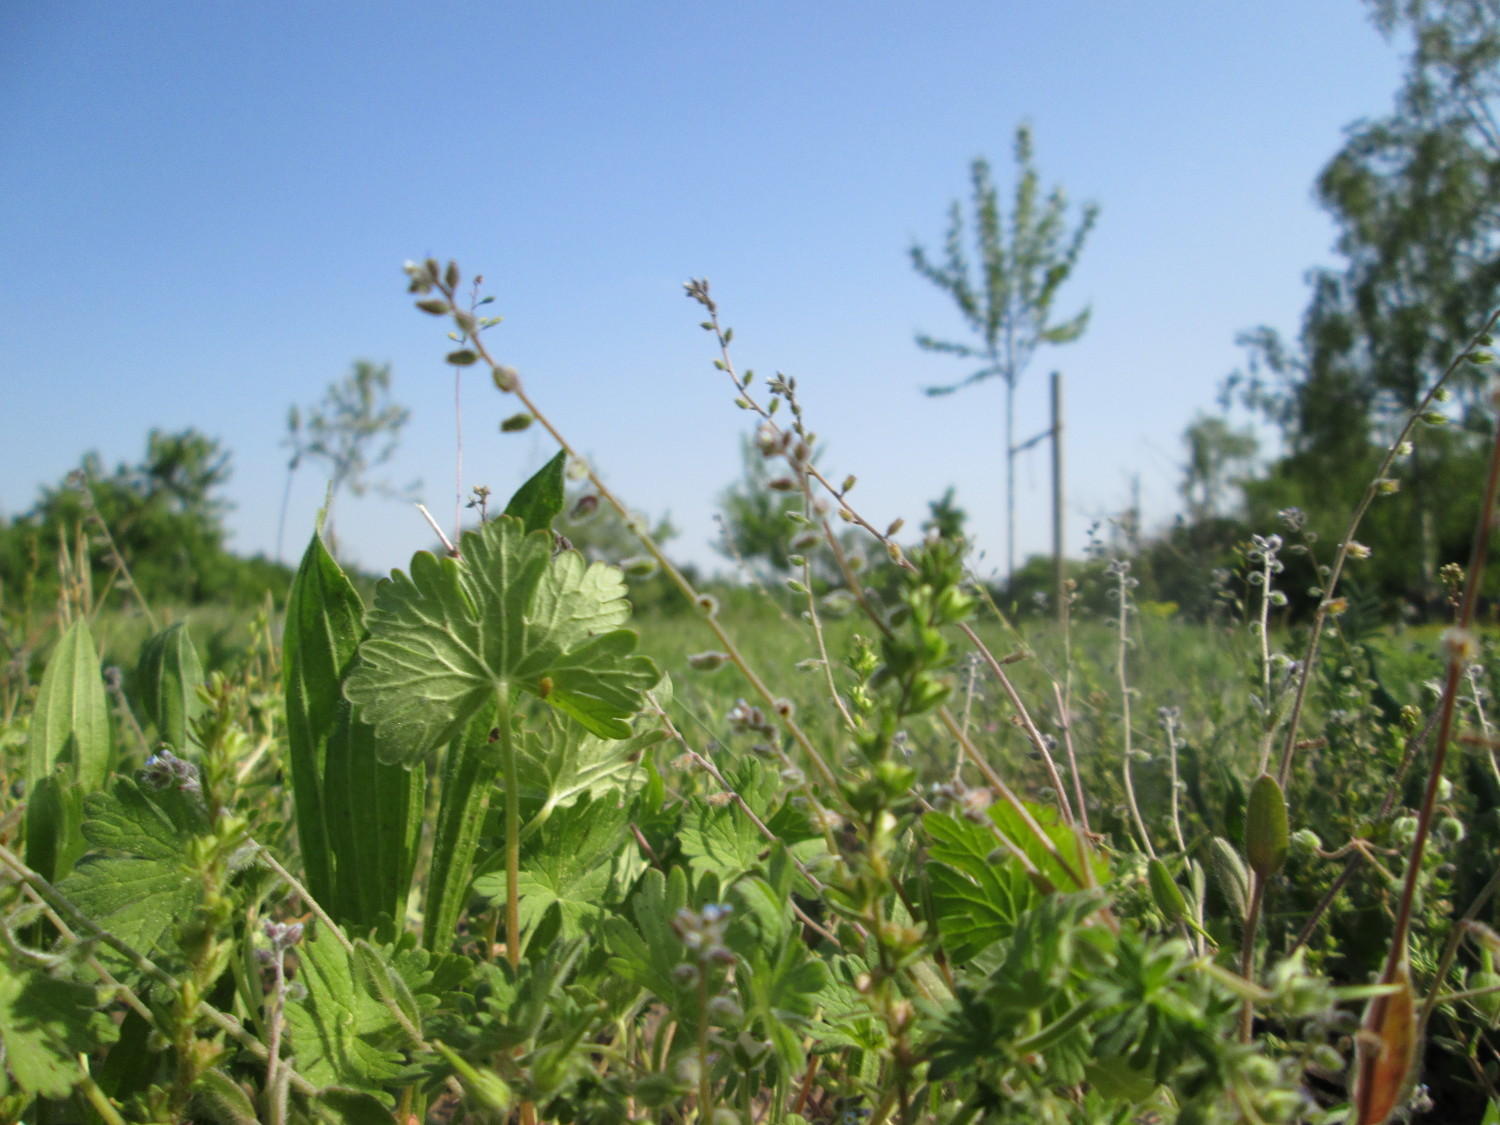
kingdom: Plantae
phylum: Tracheophyta
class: Magnoliopsida
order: Boraginales
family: Boraginaceae
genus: Myosotis
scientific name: Myosotis ramosissima
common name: Early forget-me-not
